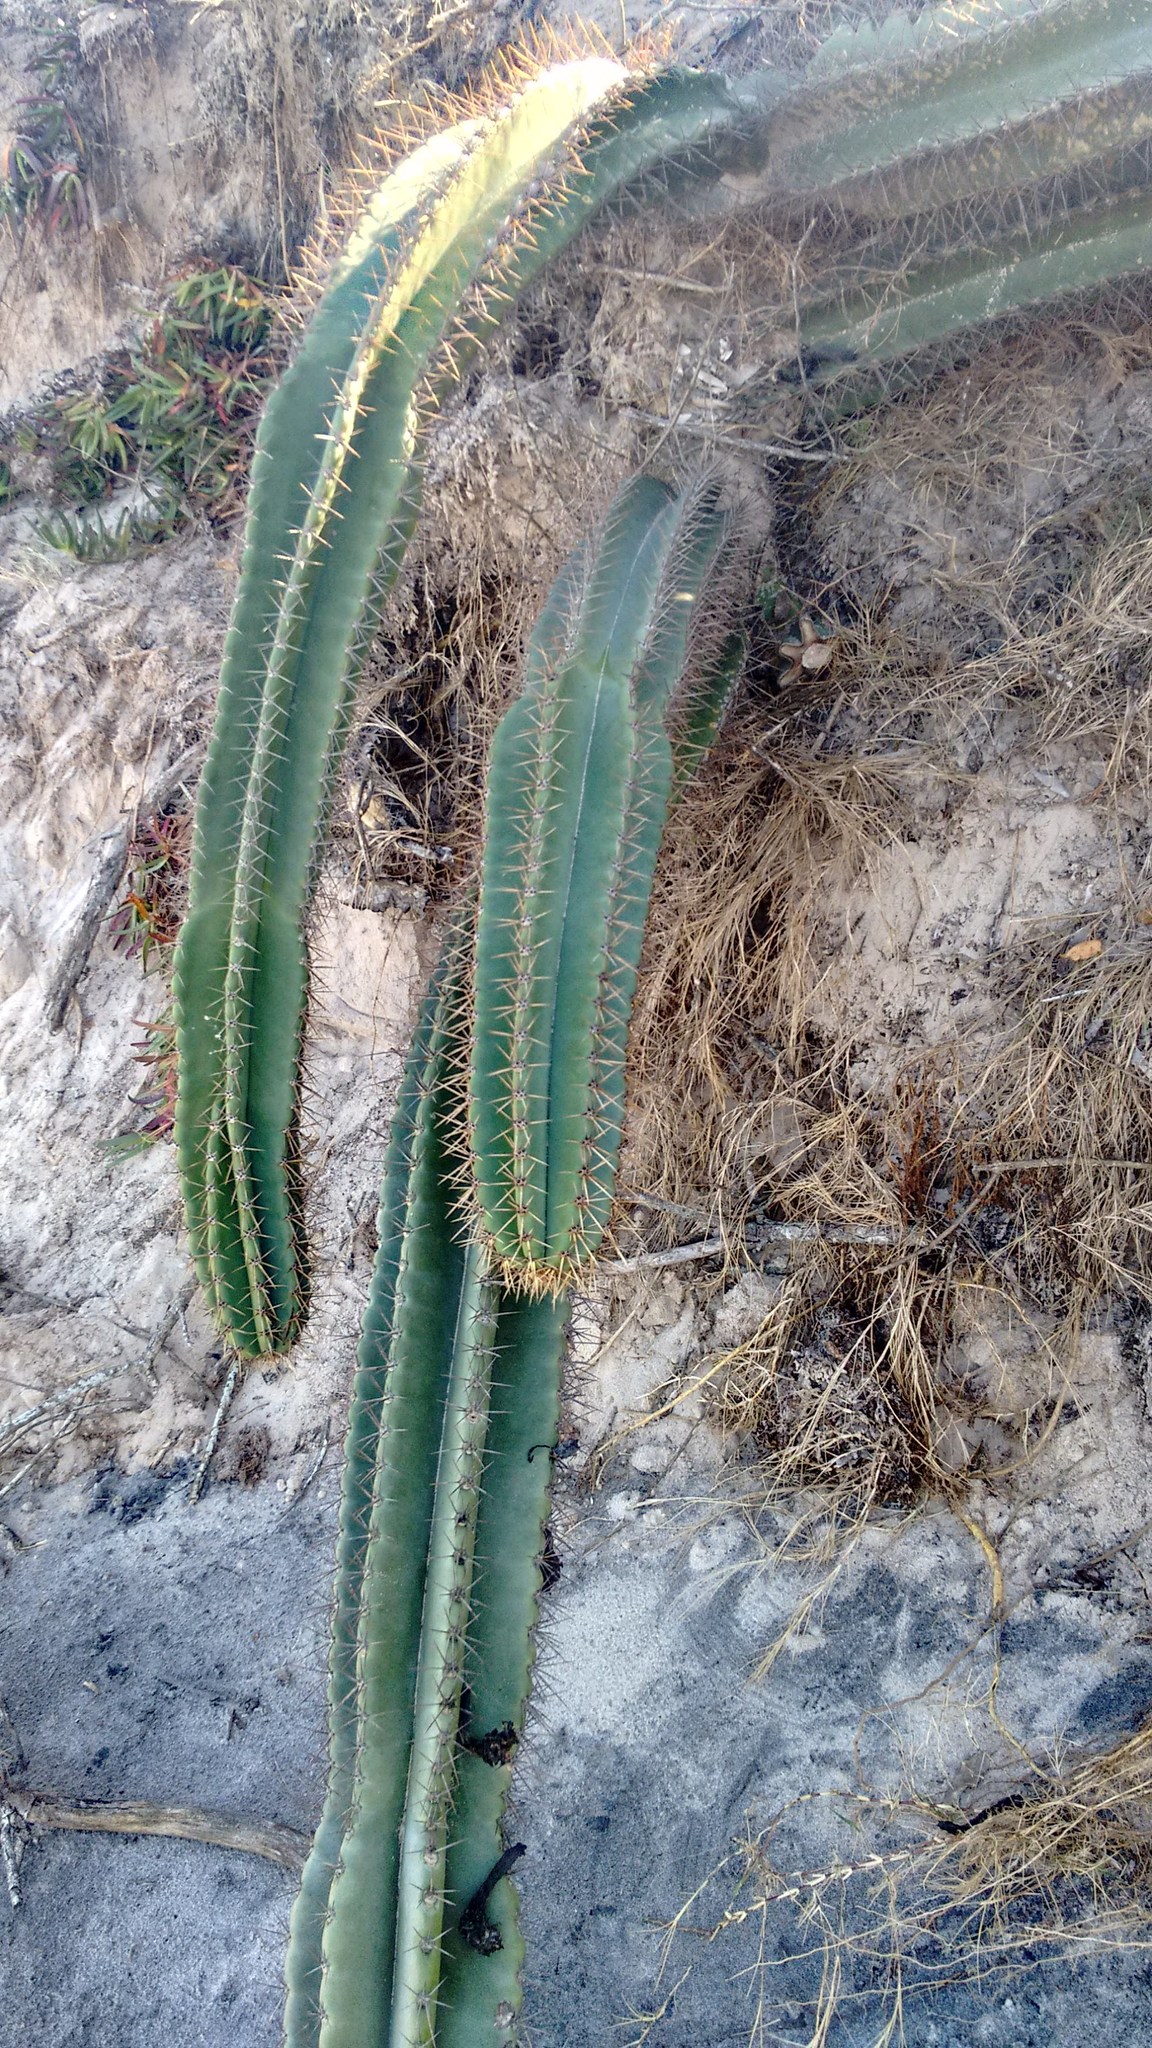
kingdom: Plantae
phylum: Tracheophyta
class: Magnoliopsida
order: Caryophyllales
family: Cactaceae
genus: Cereus
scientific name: Cereus hildmannianus
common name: Hedge cactus
